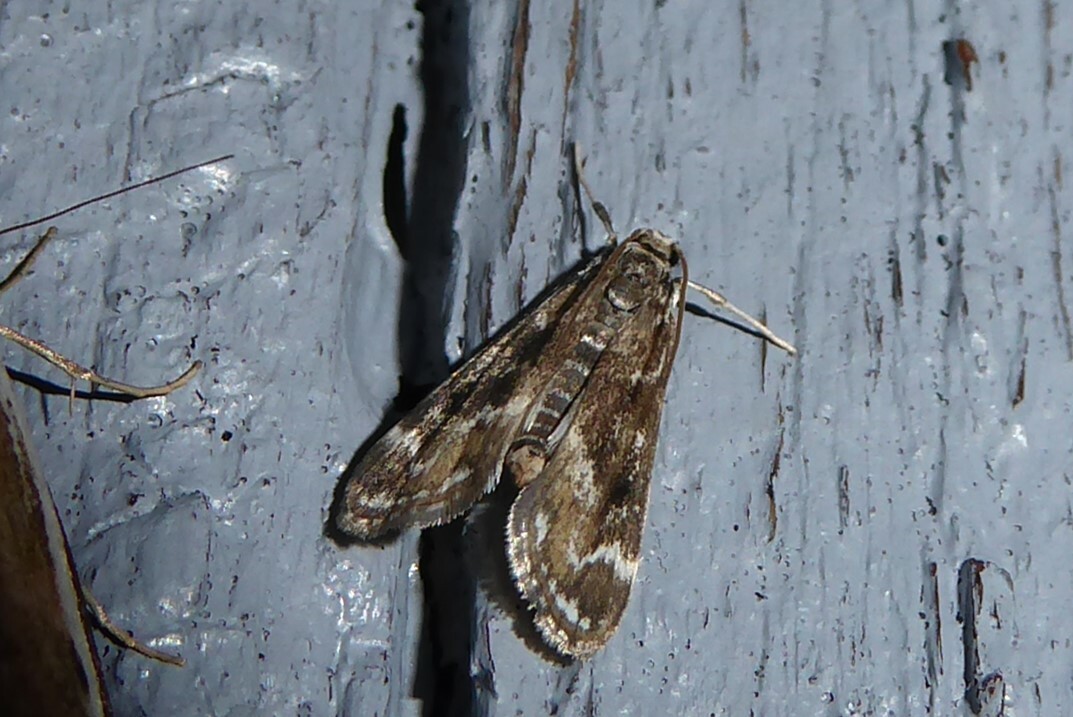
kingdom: Animalia
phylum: Arthropoda
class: Insecta
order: Lepidoptera
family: Crambidae
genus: Hygraula
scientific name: Hygraula nitens
